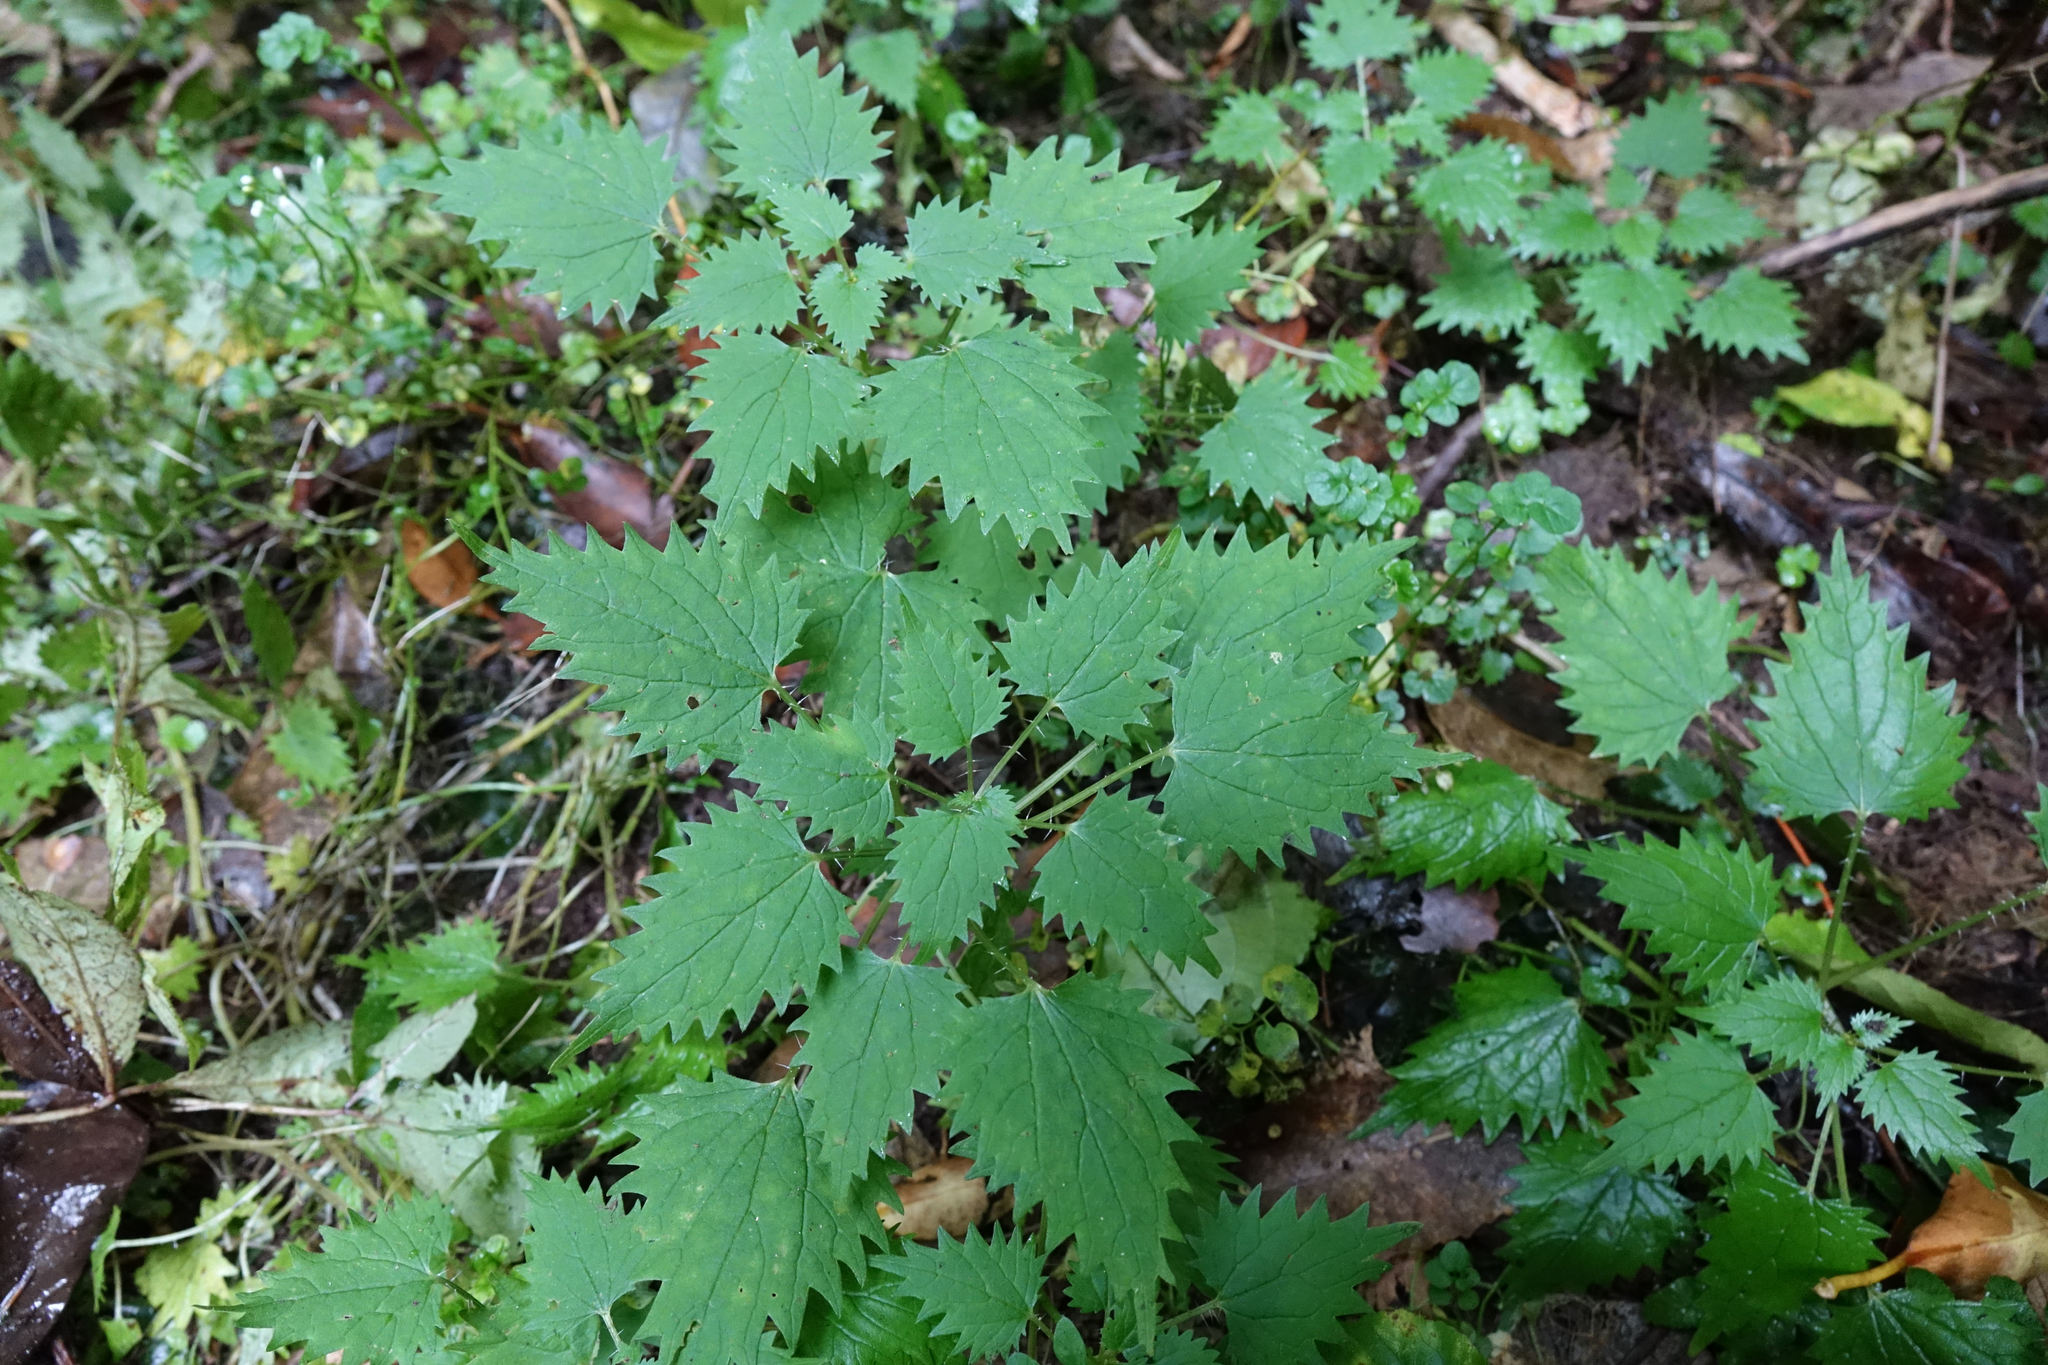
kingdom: Plantae
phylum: Tracheophyta
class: Magnoliopsida
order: Rosales
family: Urticaceae
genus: Urtica
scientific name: Urtica sykesii
